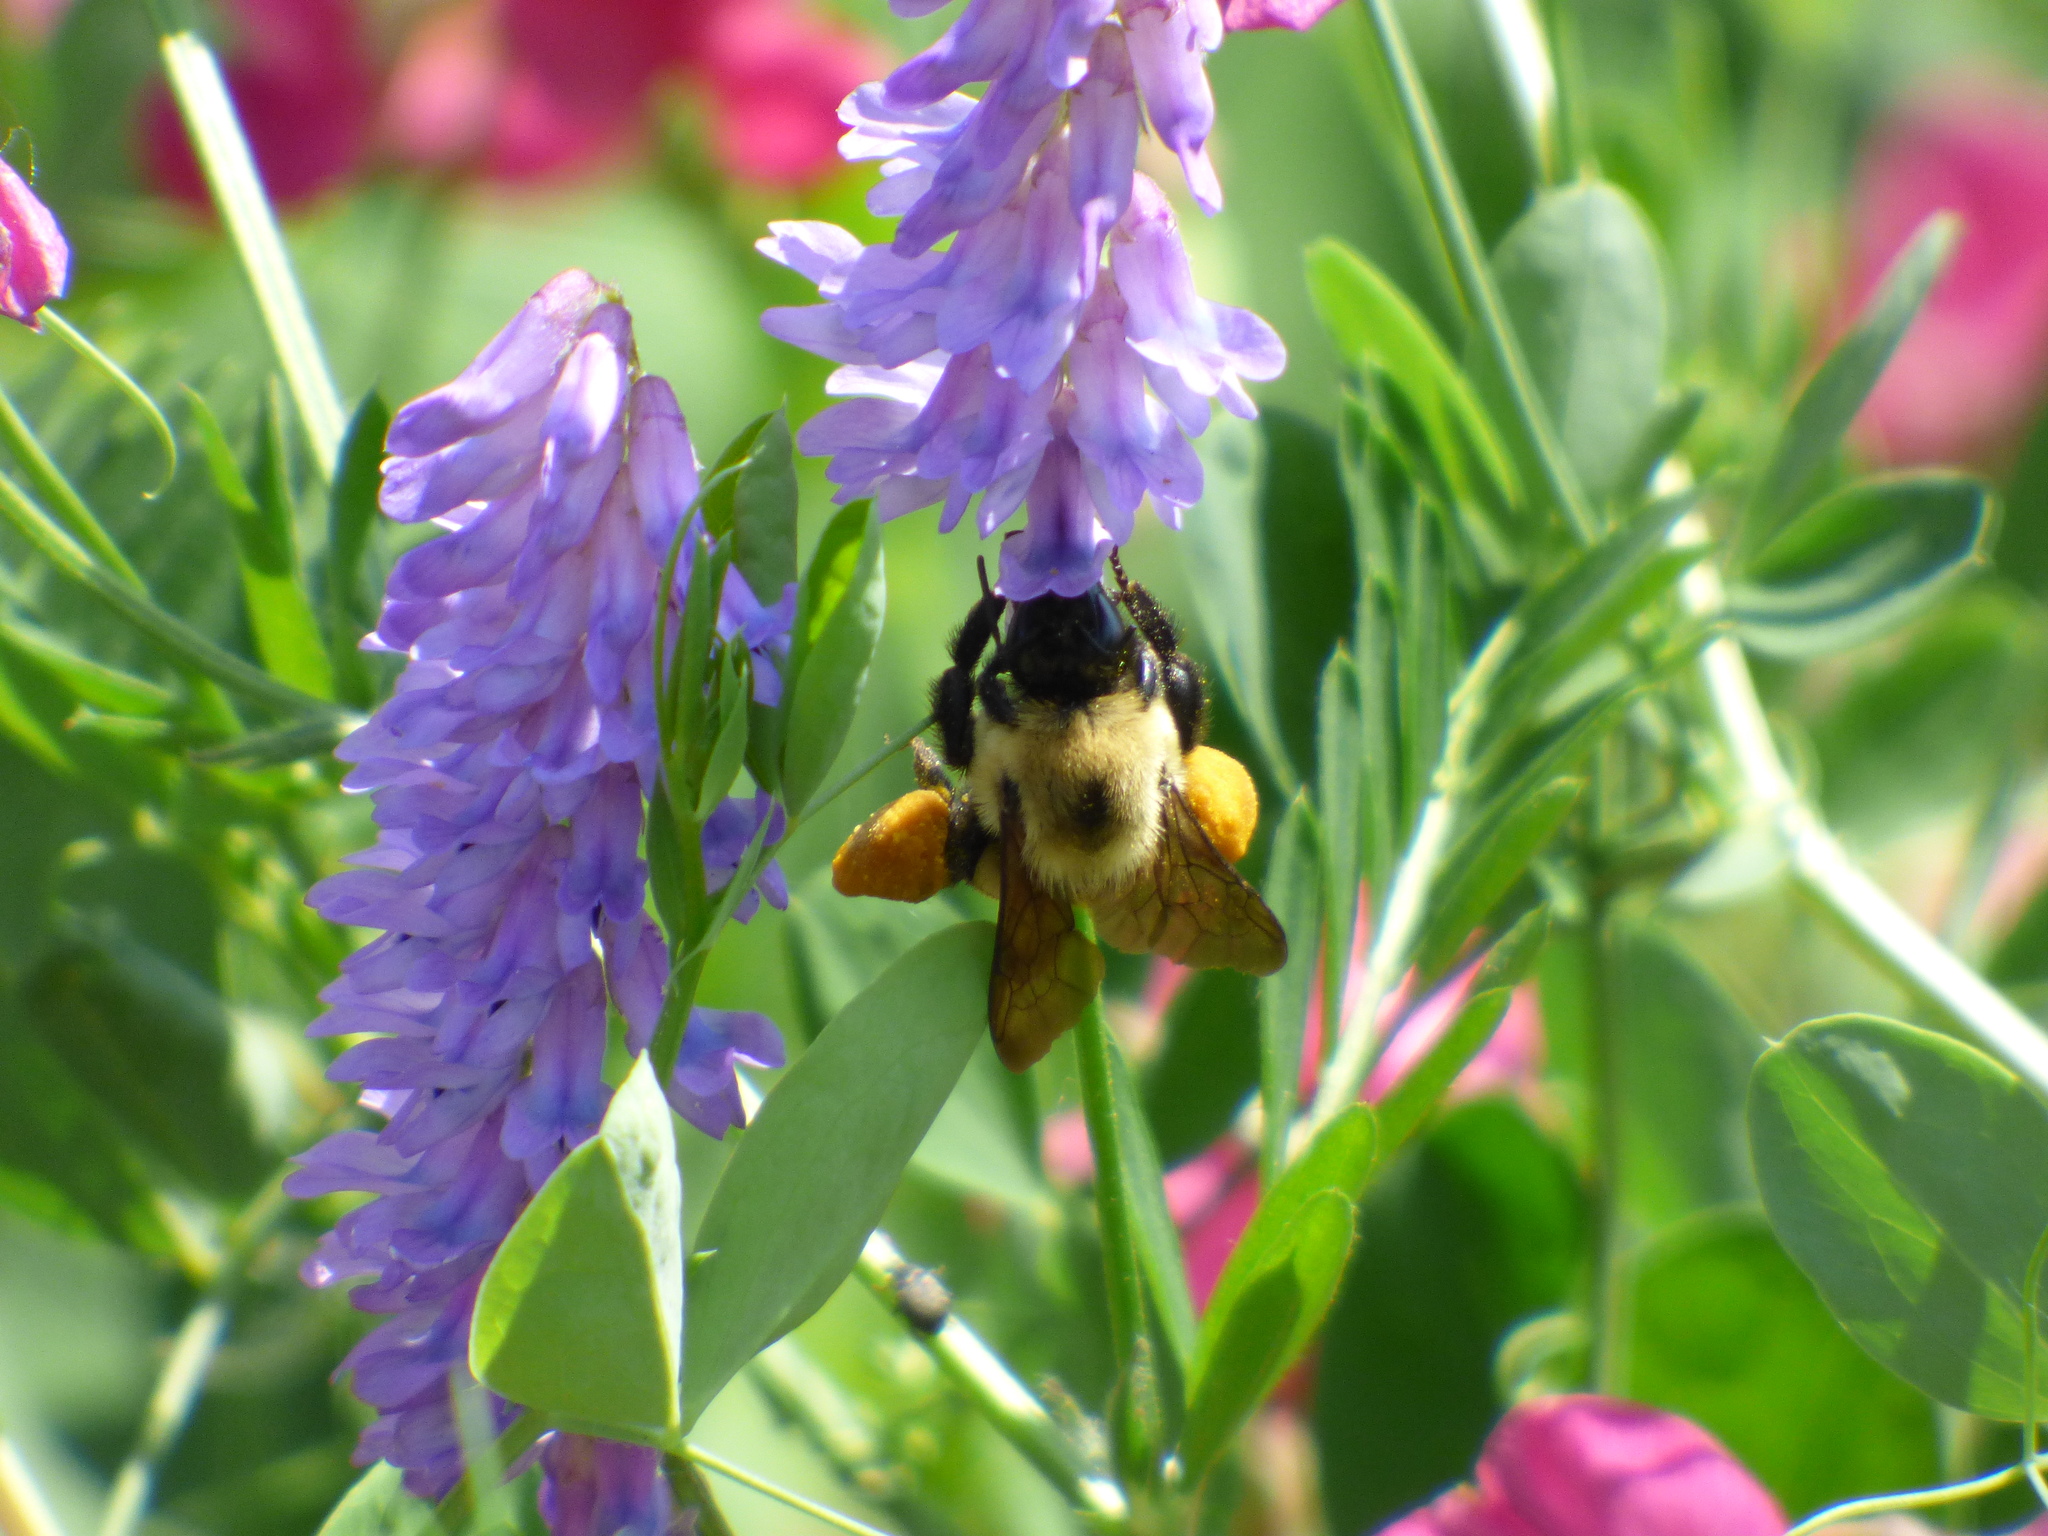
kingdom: Animalia
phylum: Arthropoda
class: Insecta
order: Hymenoptera
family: Apidae
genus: Bombus
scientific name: Bombus griseocollis
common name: Brown-belted bumble bee
